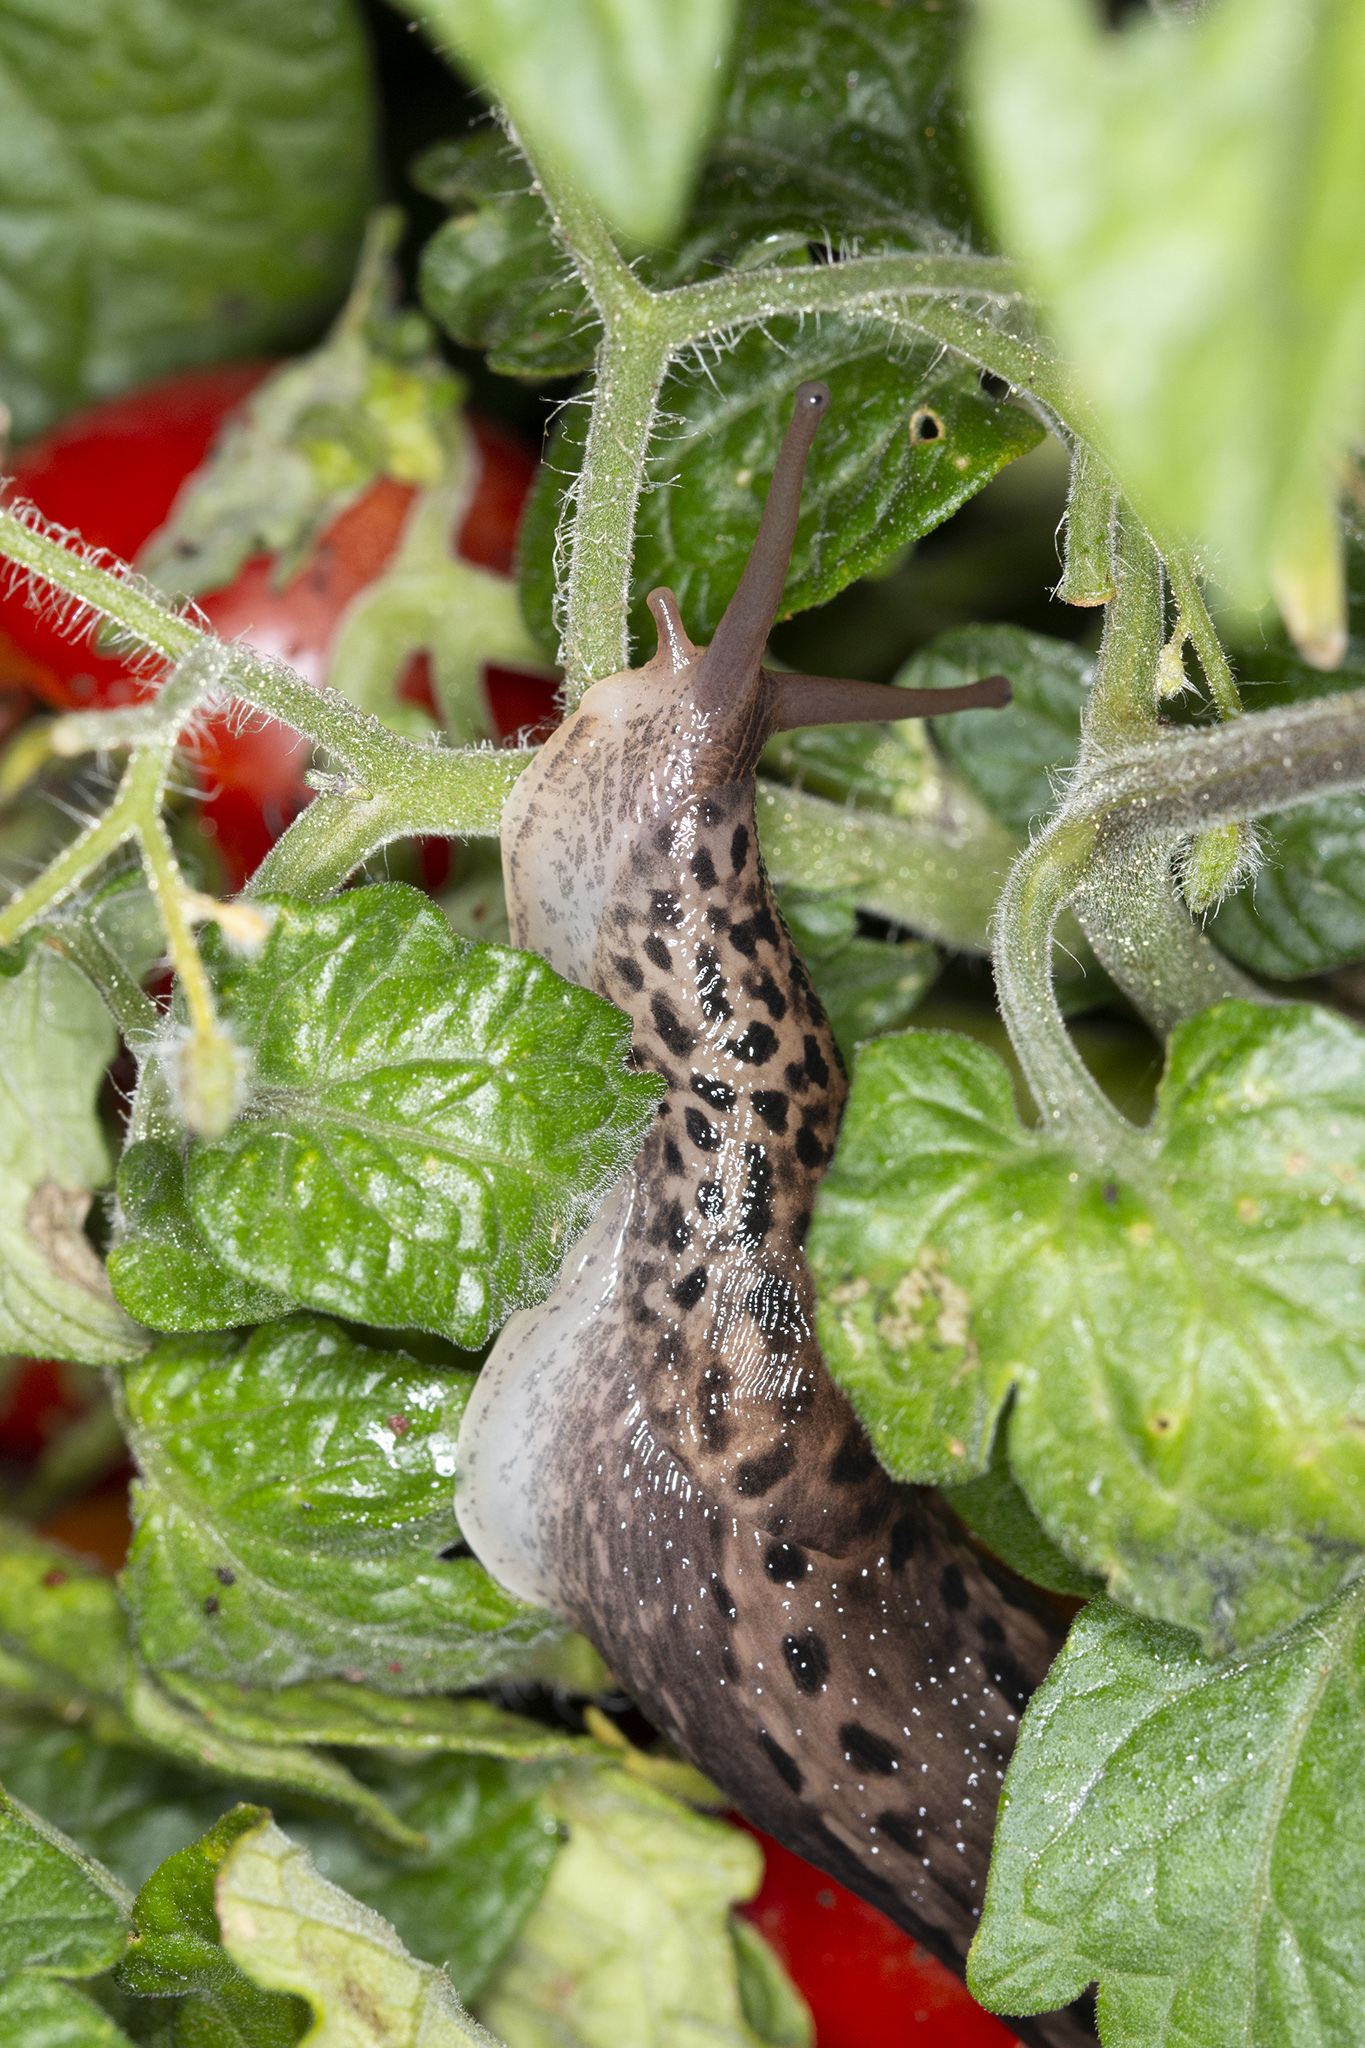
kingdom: Animalia
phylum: Mollusca
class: Gastropoda
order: Stylommatophora
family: Limacidae
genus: Limax
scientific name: Limax maximus
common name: Great grey slug
